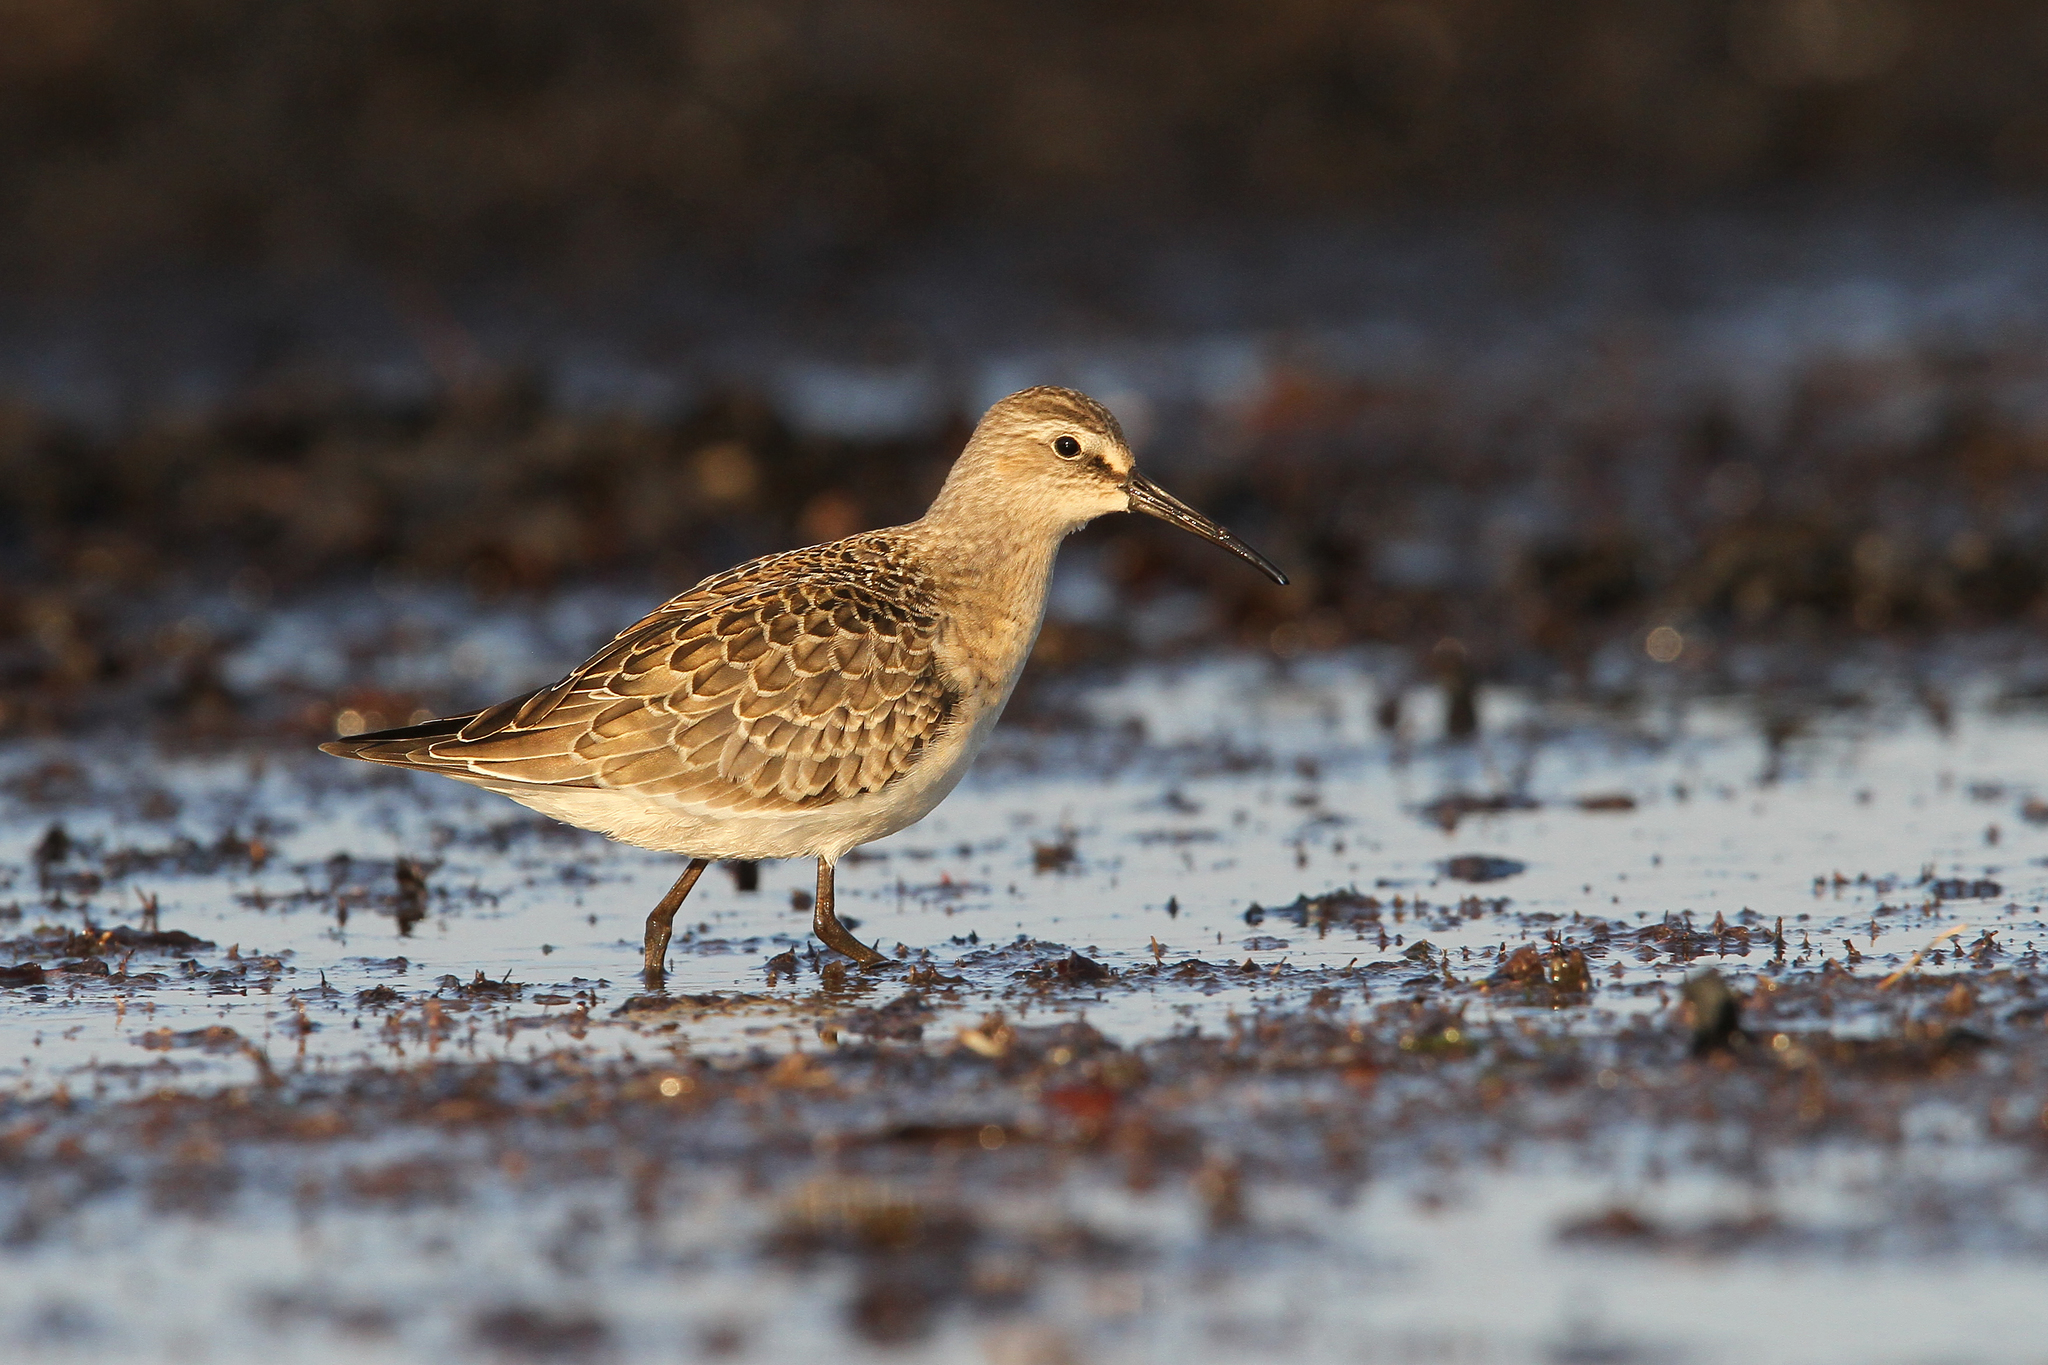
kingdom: Animalia
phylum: Chordata
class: Aves
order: Charadriiformes
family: Scolopacidae
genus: Calidris
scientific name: Calidris ferruginea
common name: Curlew sandpiper
